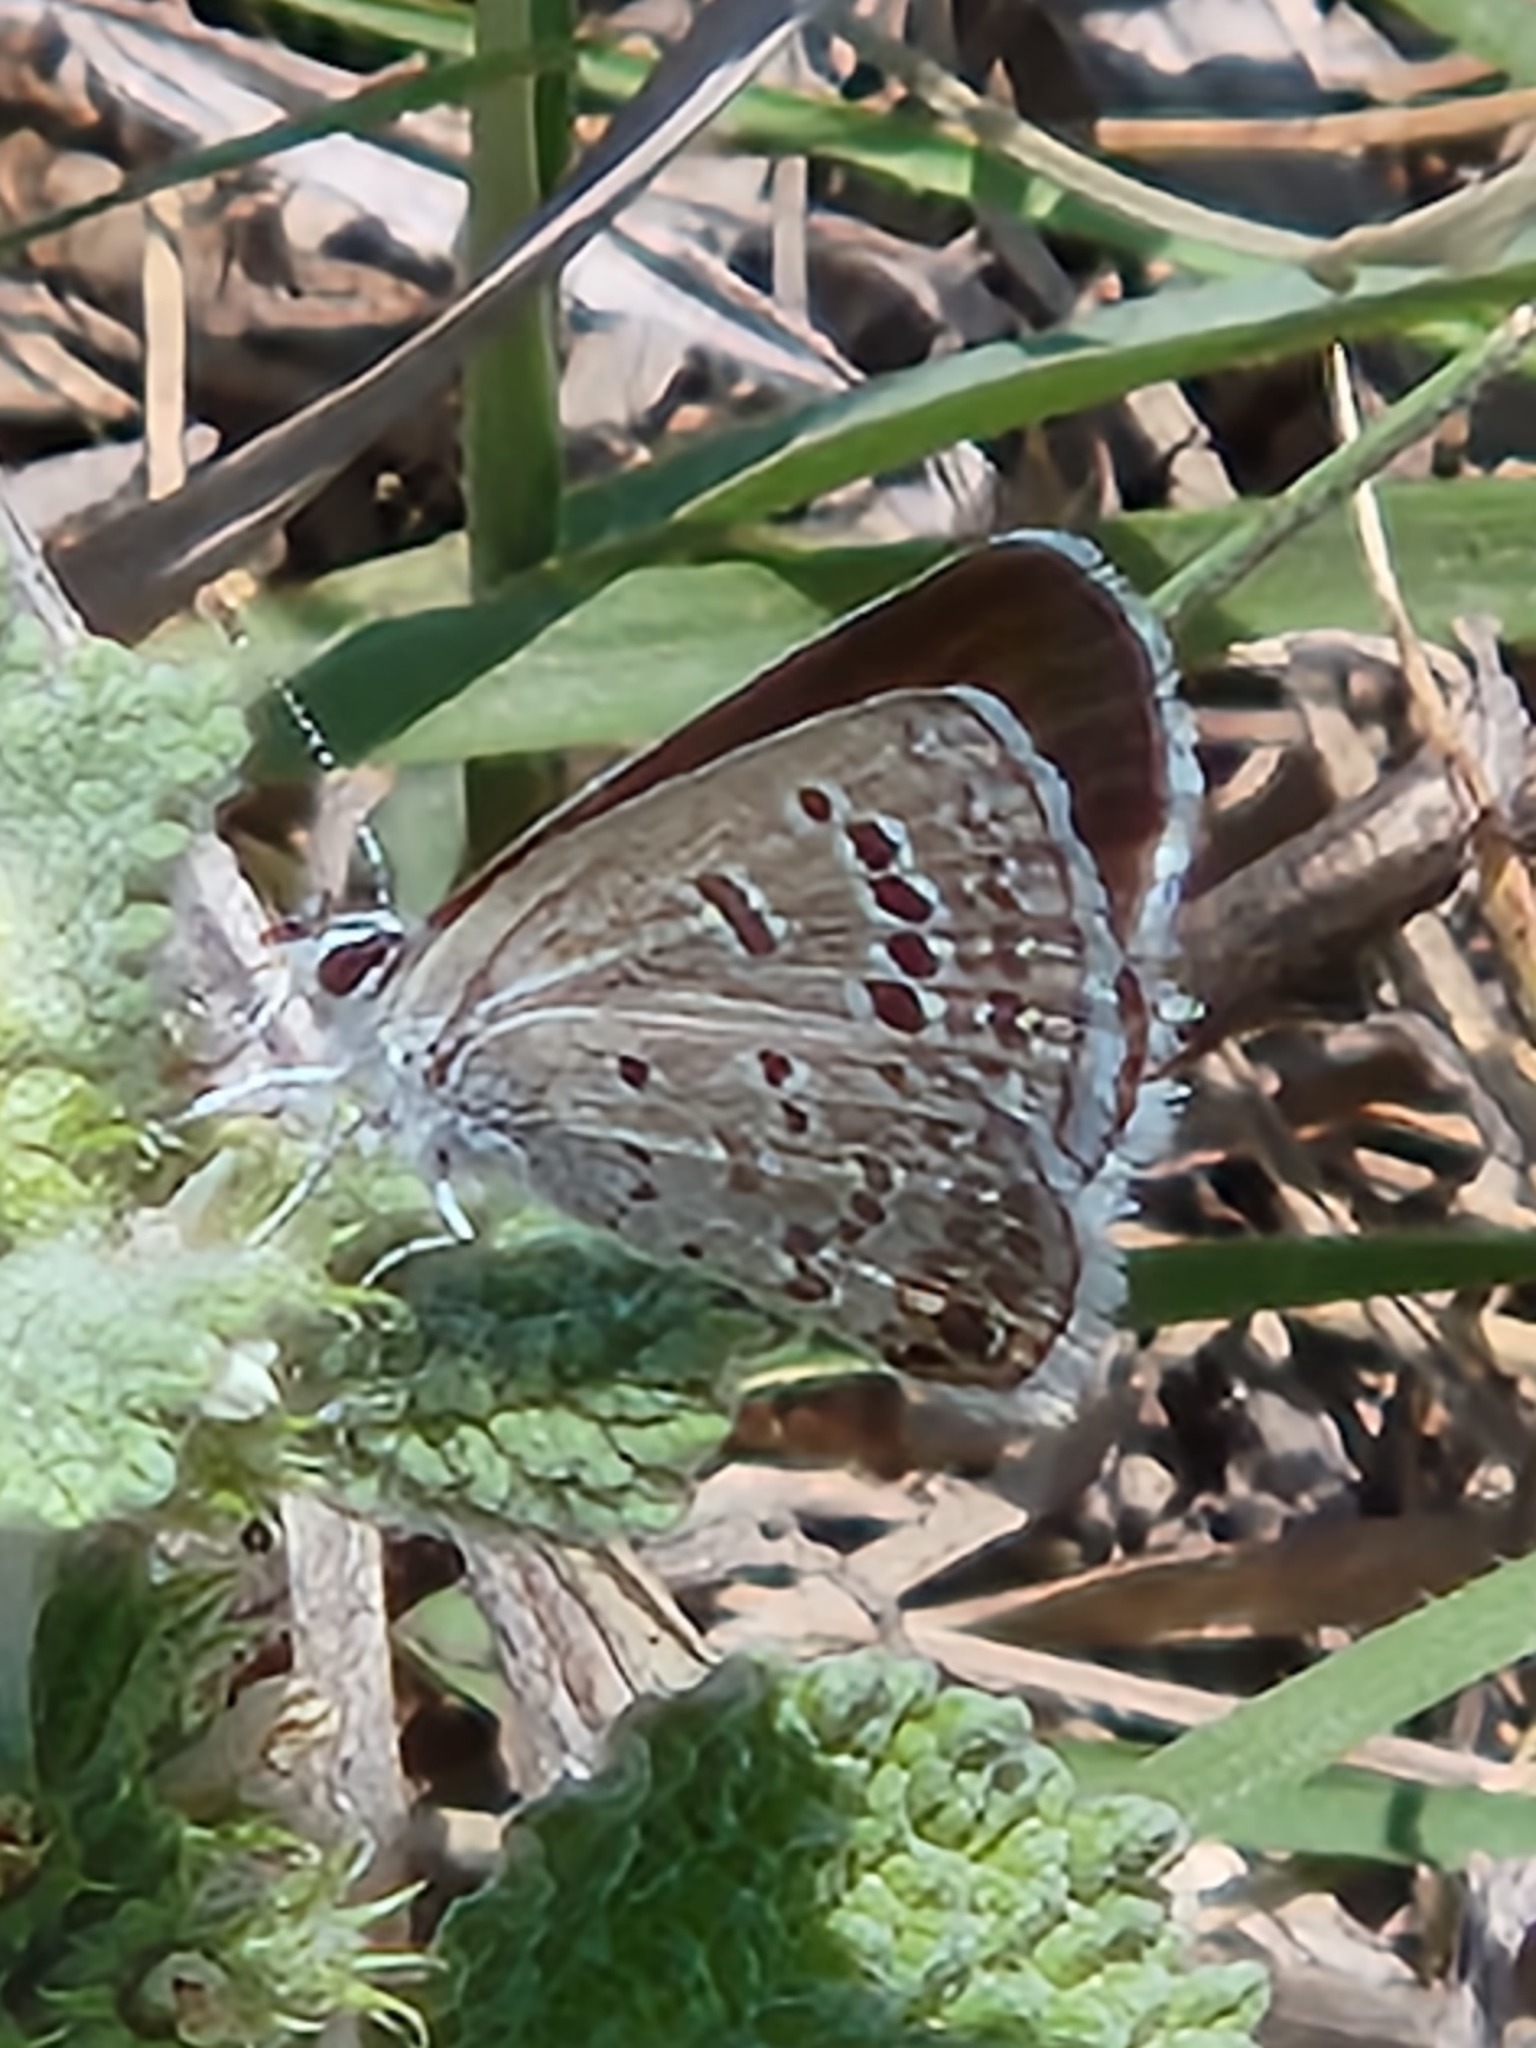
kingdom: Animalia
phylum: Arthropoda
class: Insecta
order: Lepidoptera
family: Lycaenidae
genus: Echinargus
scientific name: Echinargus isola
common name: Reakirt's blue
